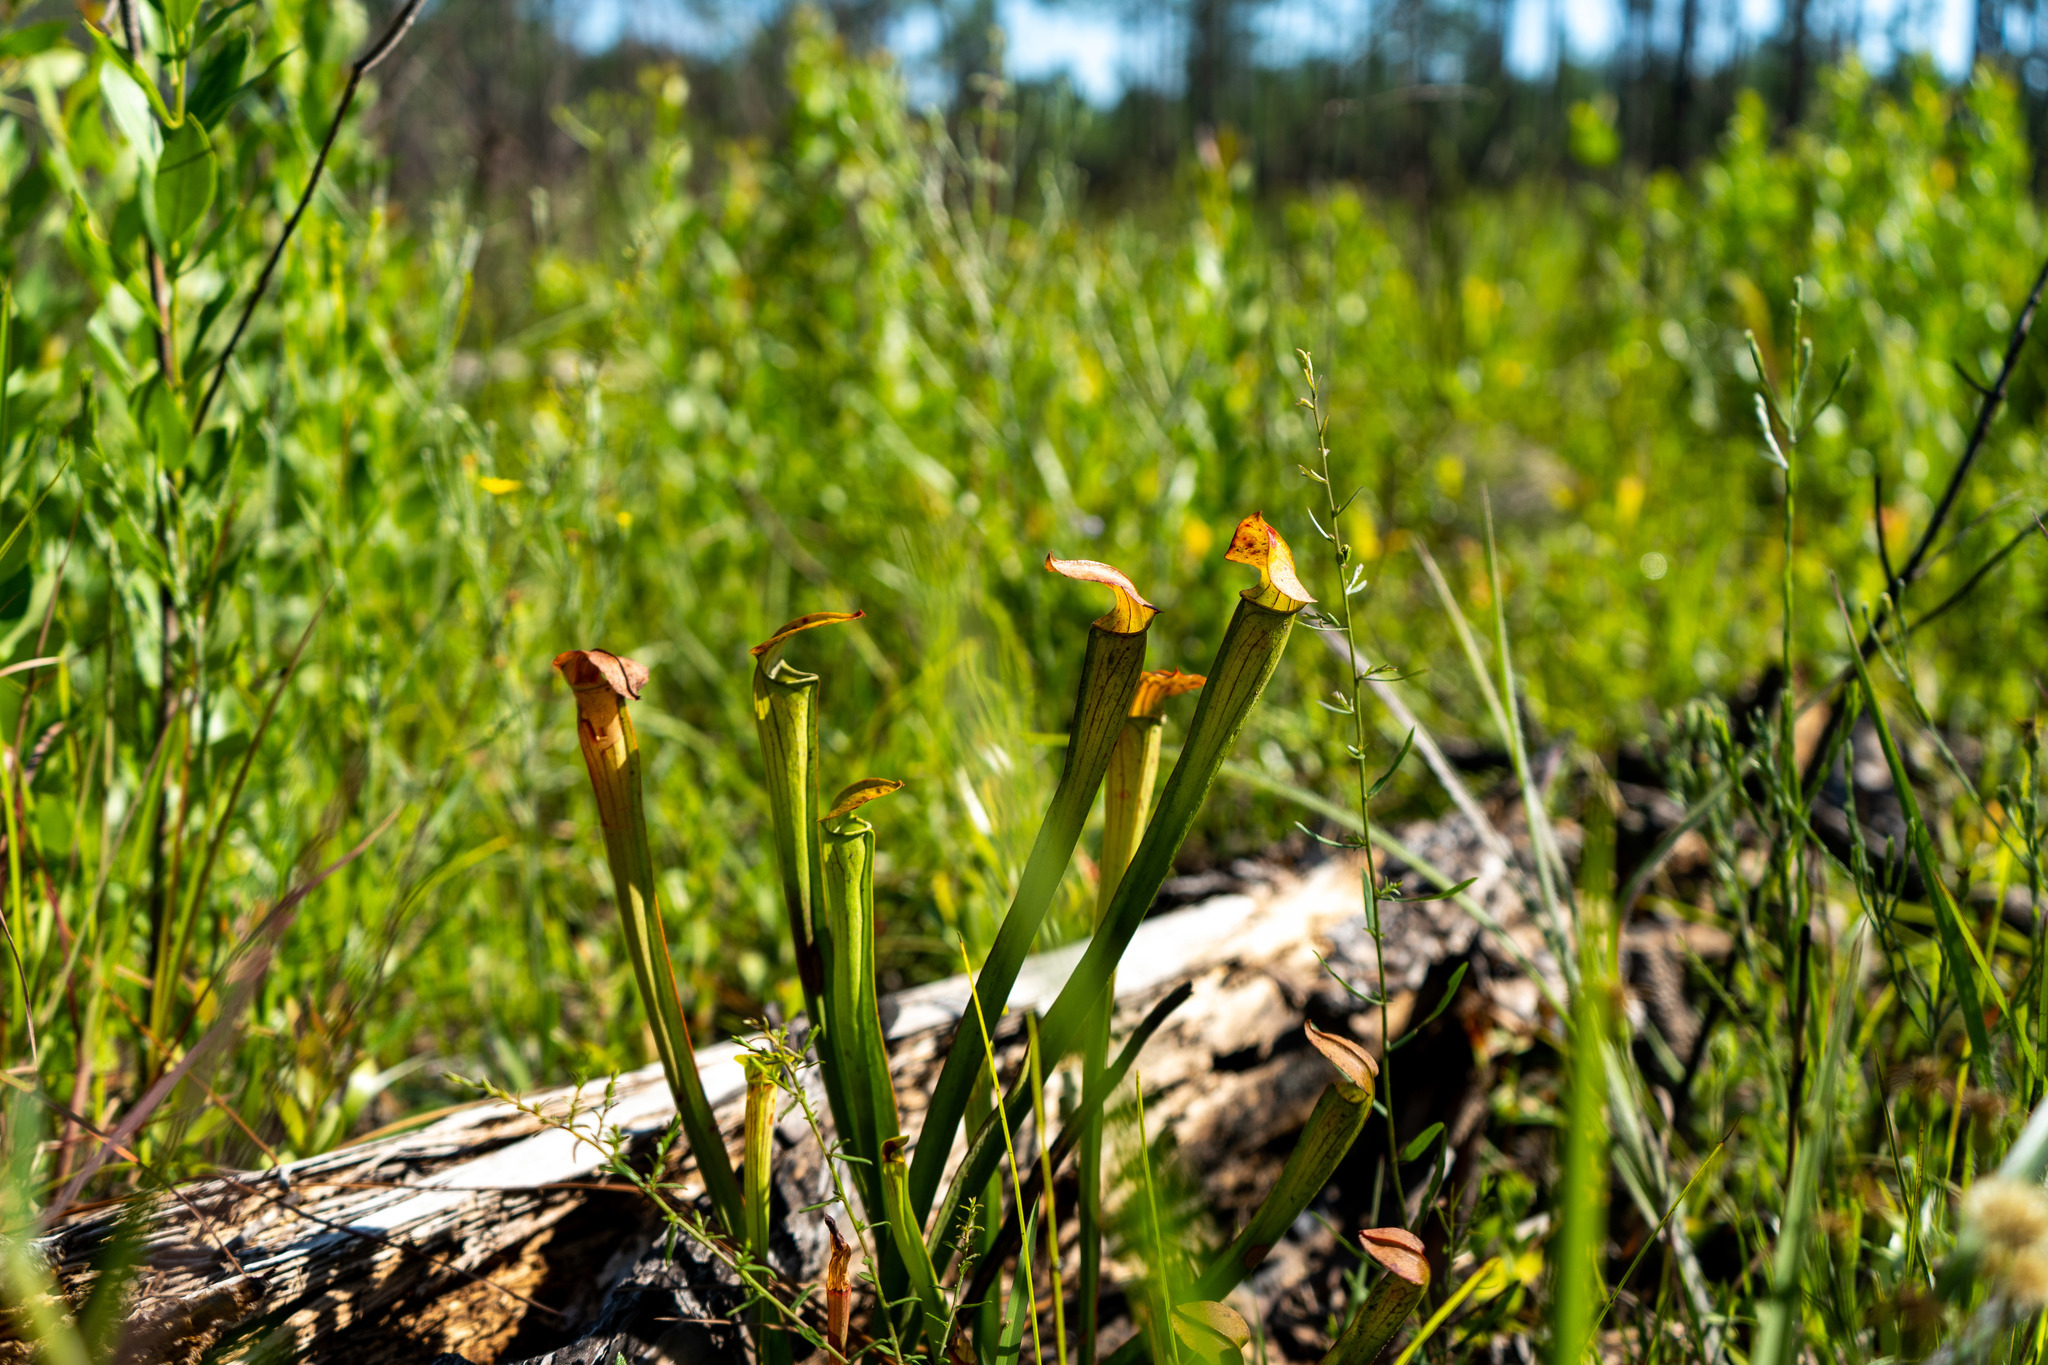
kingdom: Plantae
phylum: Tracheophyta
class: Magnoliopsida
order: Ericales
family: Sarraceniaceae
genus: Sarracenia
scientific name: Sarracenia alata
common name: Yellow trumpets
